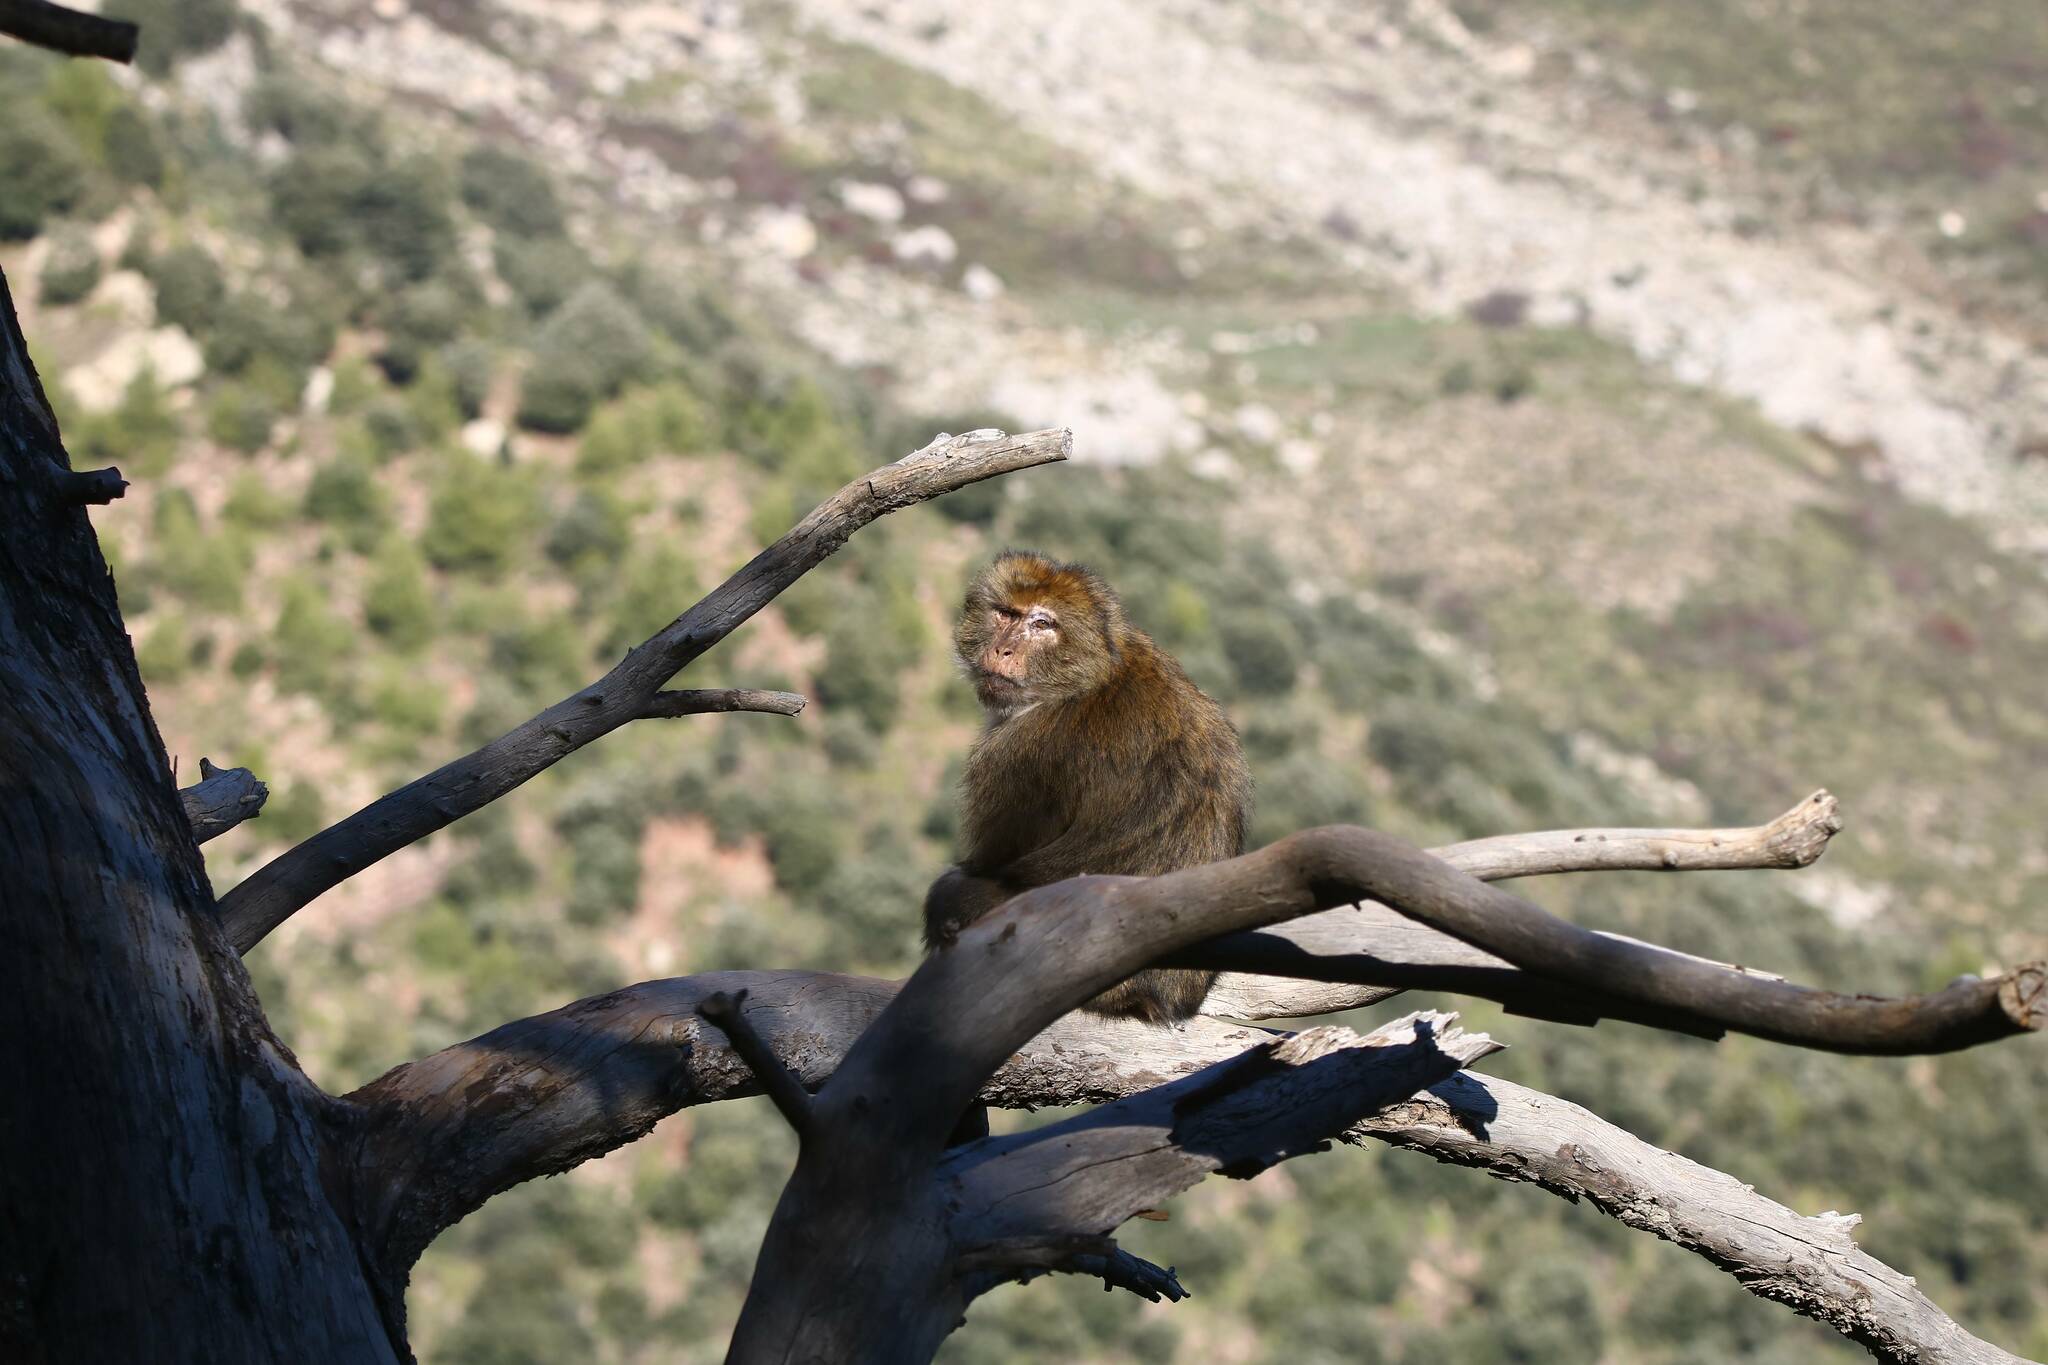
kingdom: Animalia
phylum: Chordata
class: Mammalia
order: Primates
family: Cercopithecidae
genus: Macaca
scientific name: Macaca sylvanus
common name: Barbary macaque
